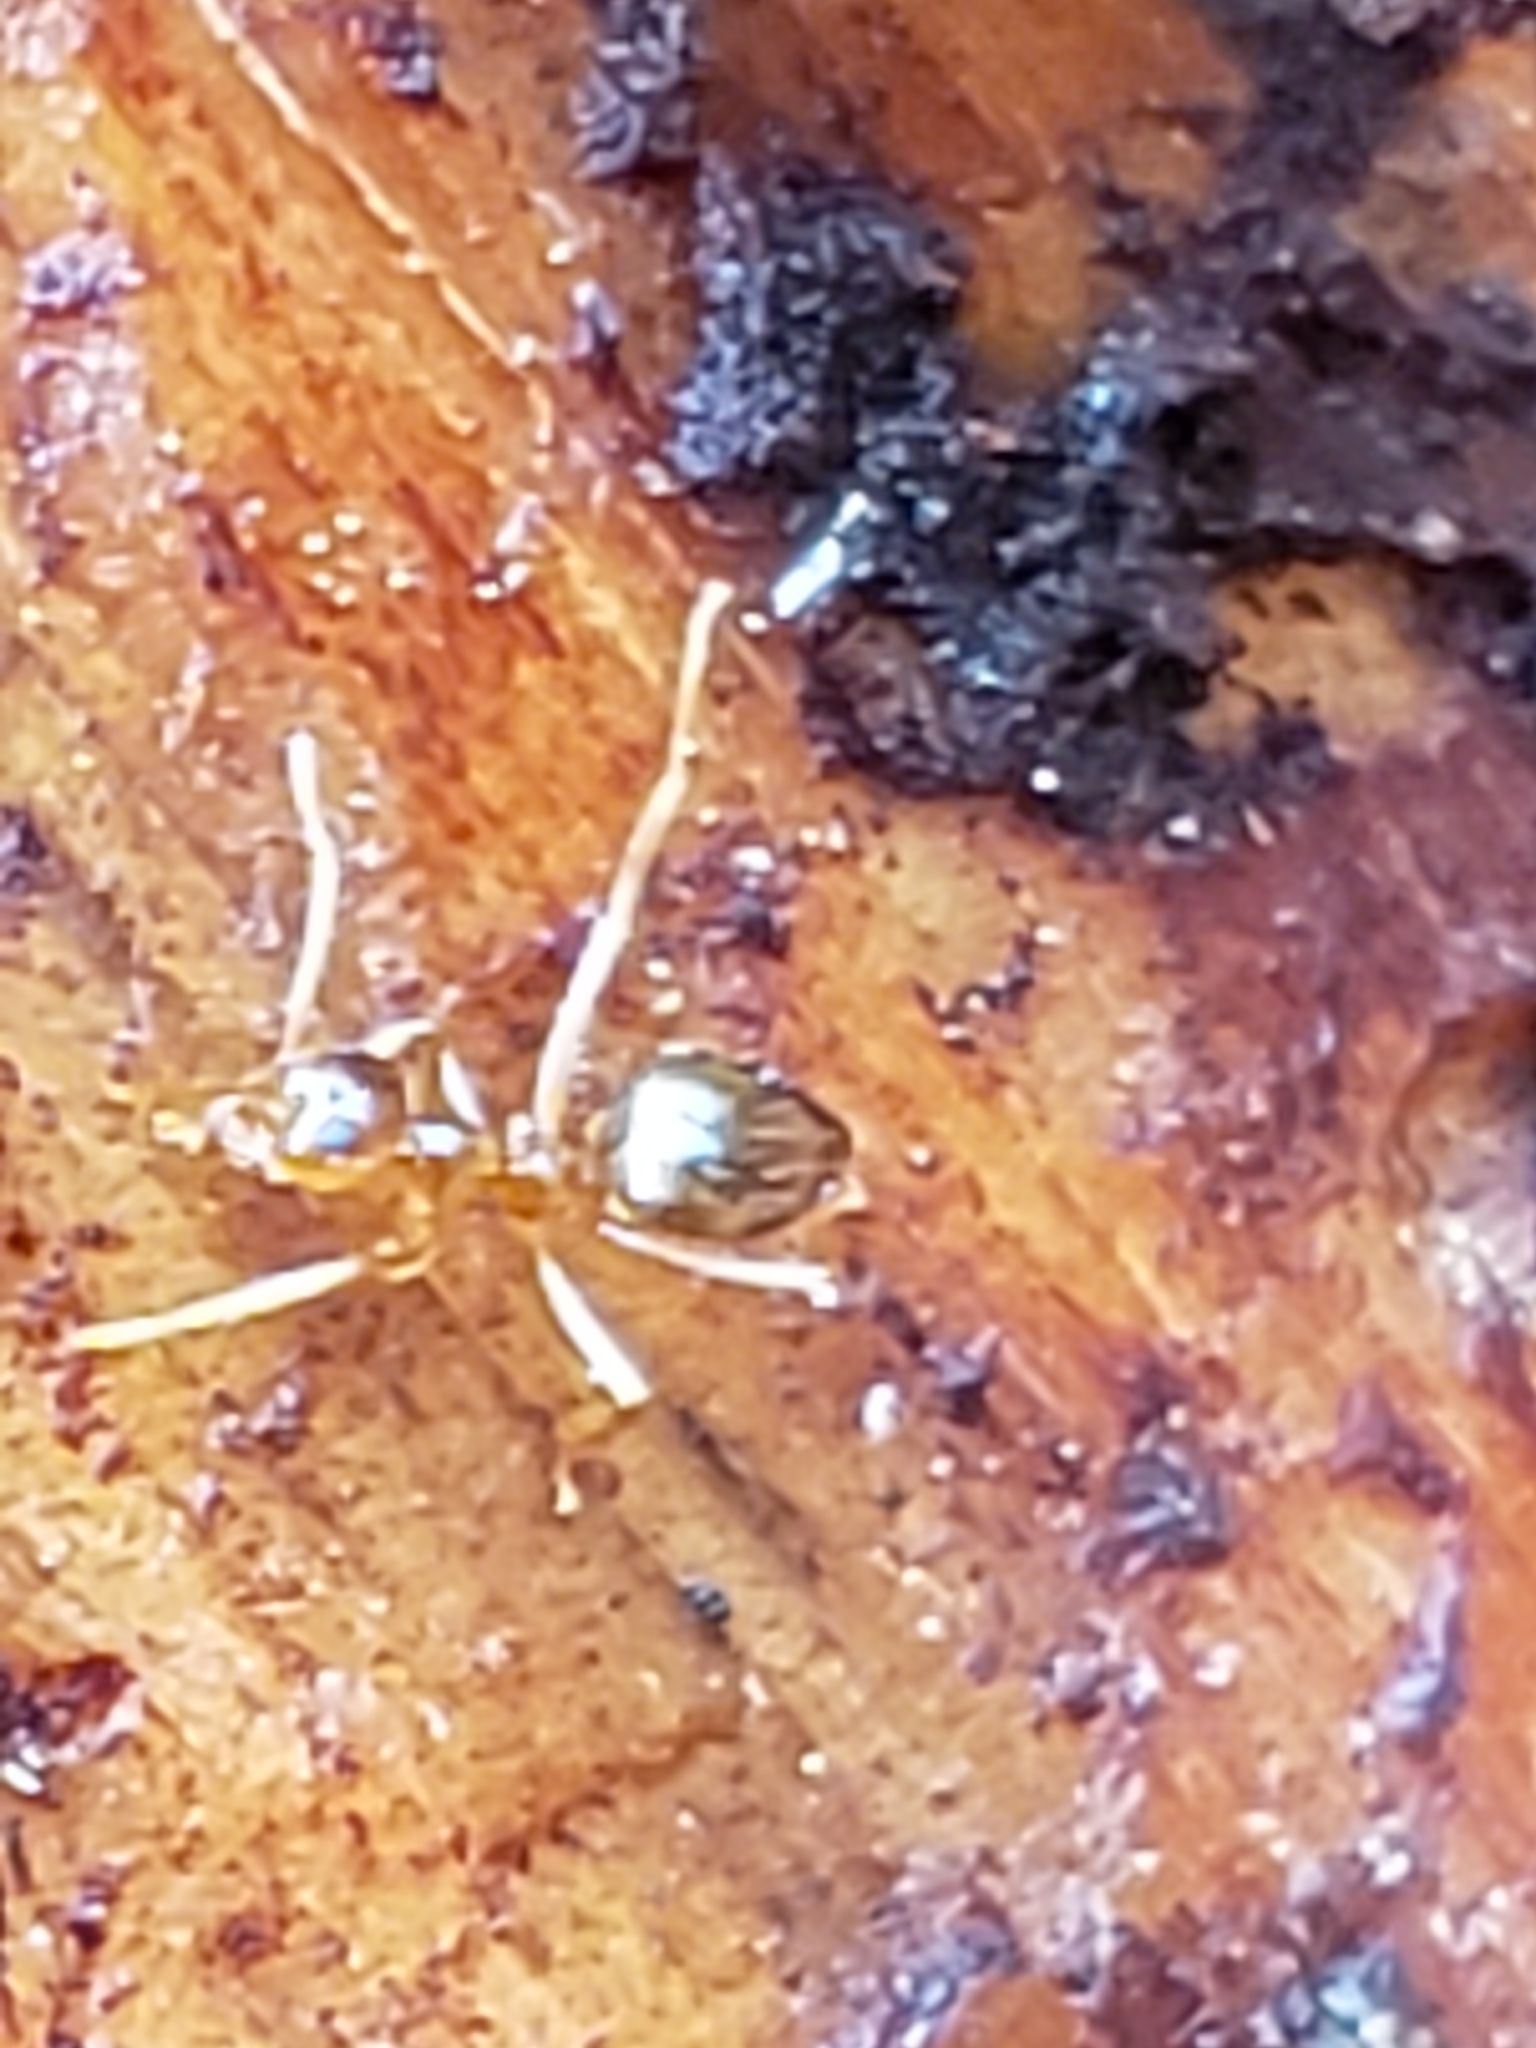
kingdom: Animalia
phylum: Arthropoda
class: Insecta
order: Hymenoptera
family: Formicidae
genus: Prenolepis
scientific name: Prenolepis imparis
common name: Small honey ant
